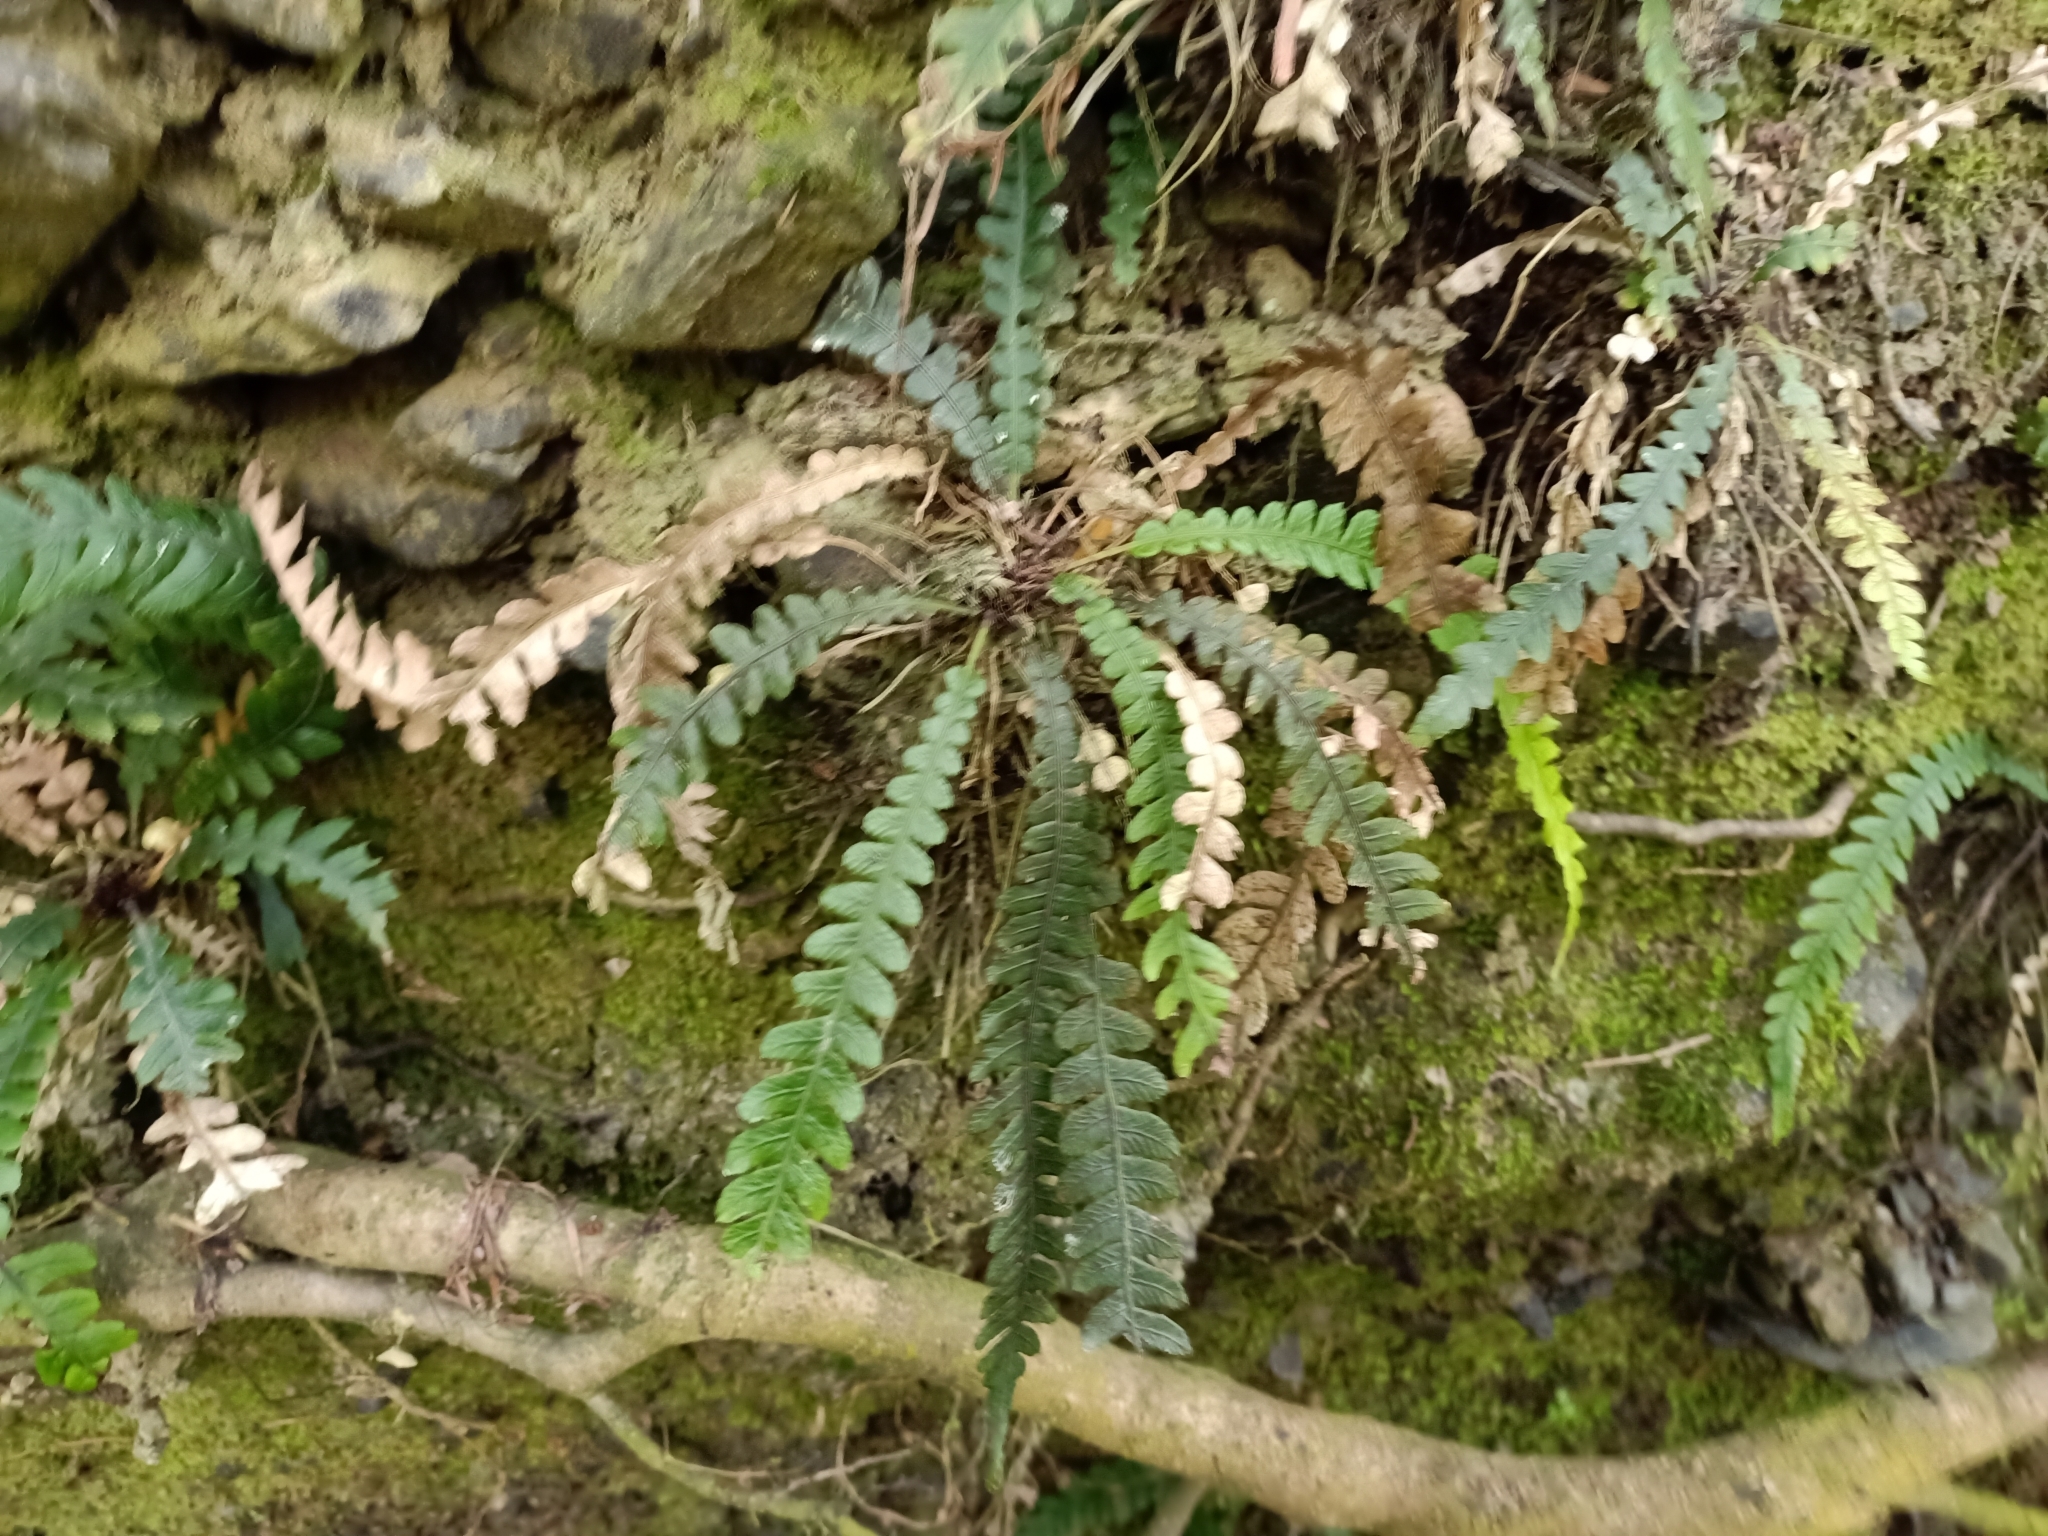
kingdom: Plantae
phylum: Tracheophyta
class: Polypodiopsida
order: Polypodiales
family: Blechnaceae
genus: Austroblechnum
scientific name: Austroblechnum membranaceum
